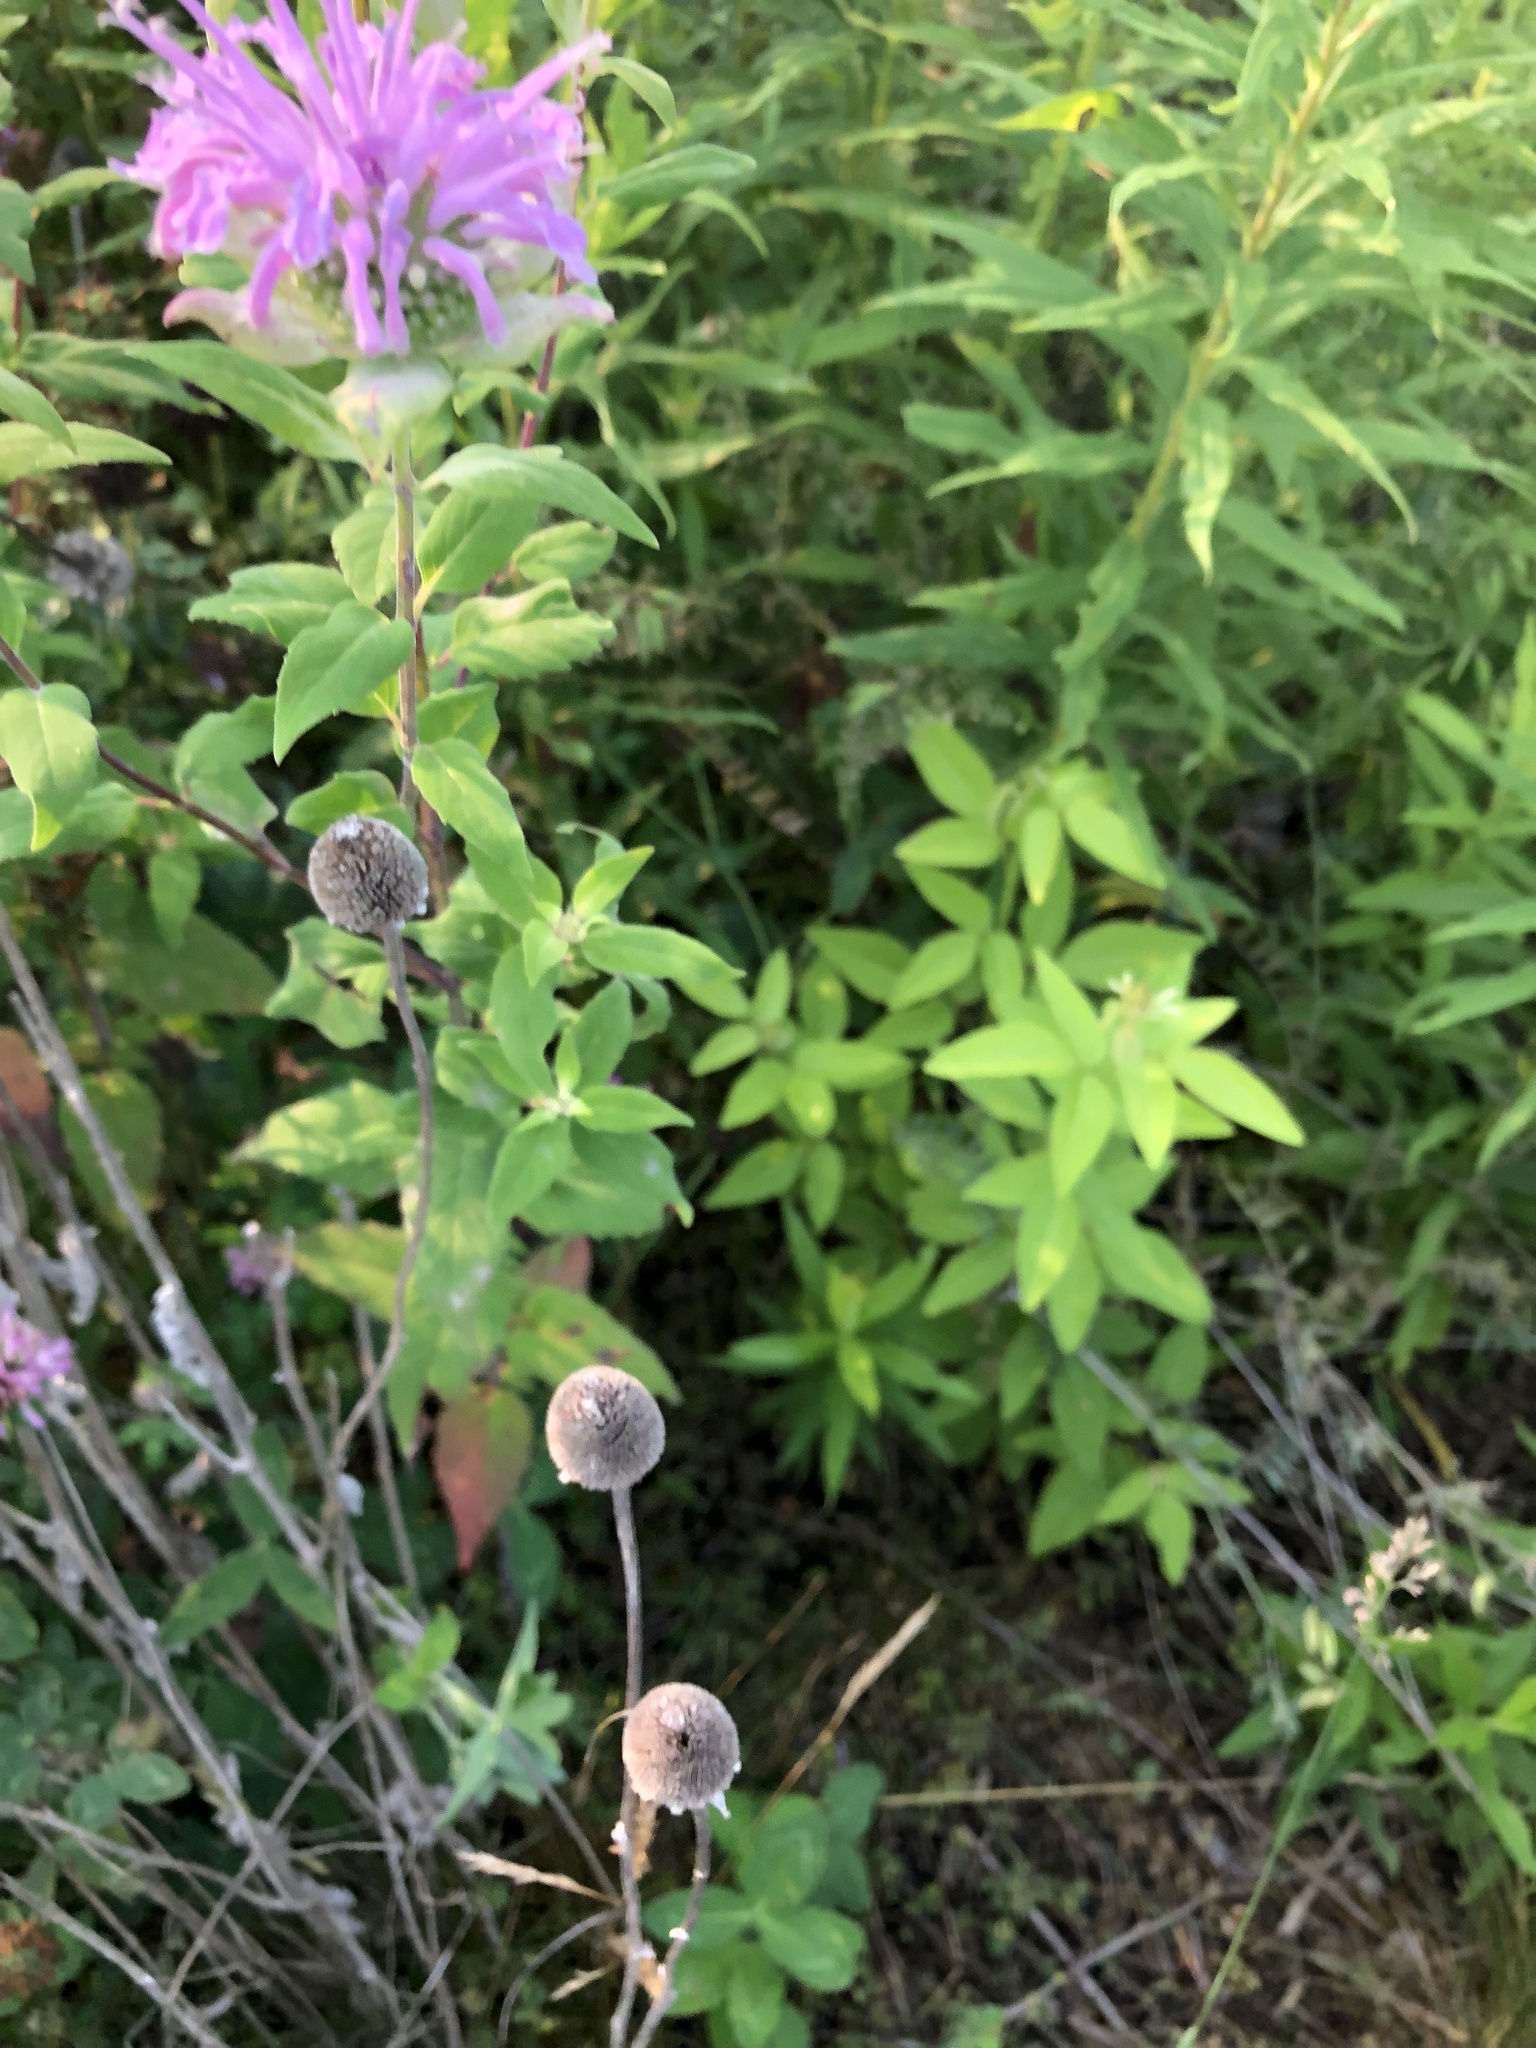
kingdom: Plantae
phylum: Tracheophyta
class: Magnoliopsida
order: Lamiales
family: Lamiaceae
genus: Monarda
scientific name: Monarda fistulosa
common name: Purple beebalm
